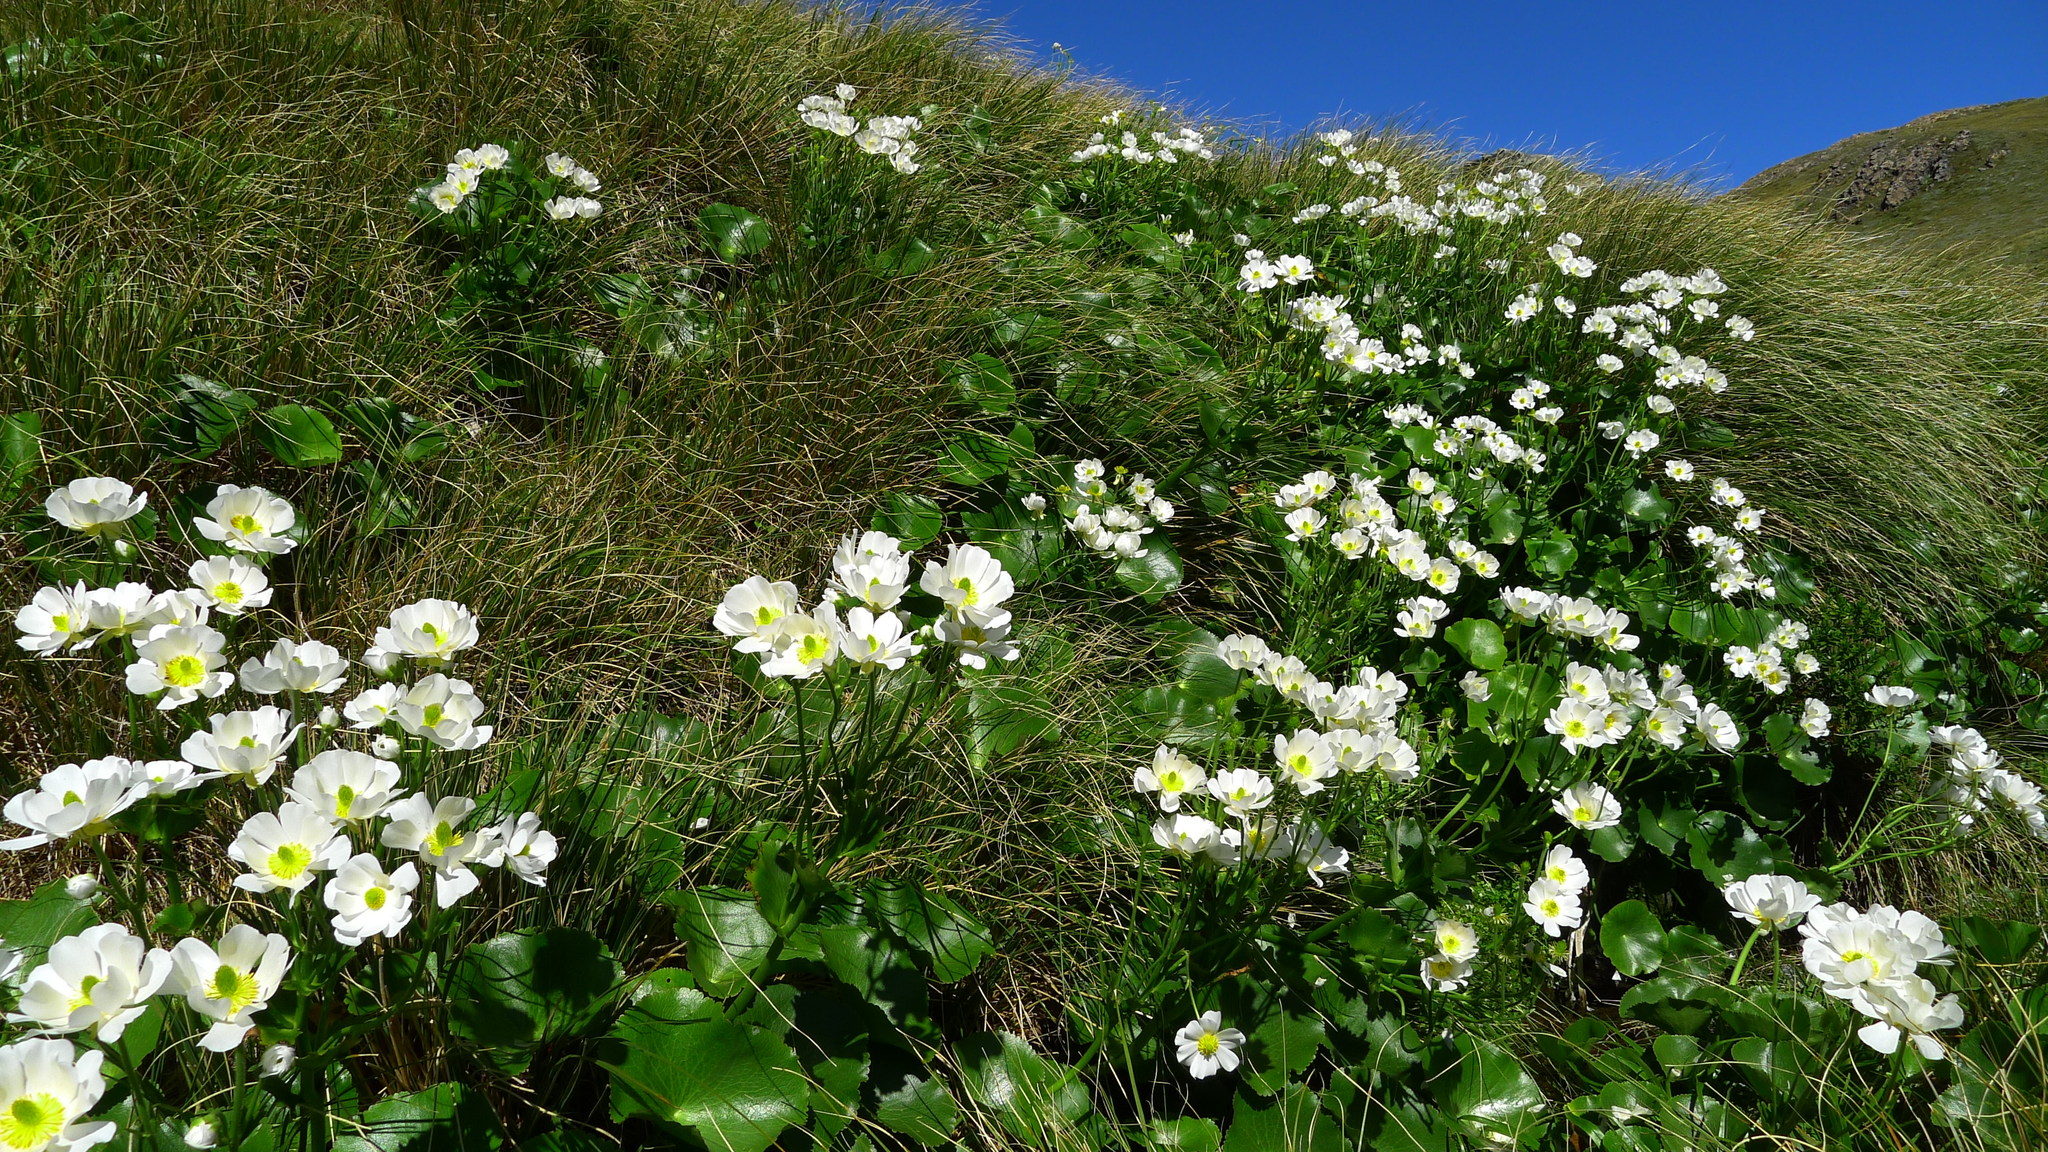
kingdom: Plantae
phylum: Tracheophyta
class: Magnoliopsida
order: Ranunculales
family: Ranunculaceae
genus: Ranunculus
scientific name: Ranunculus lyallii
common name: Mountain-lily
